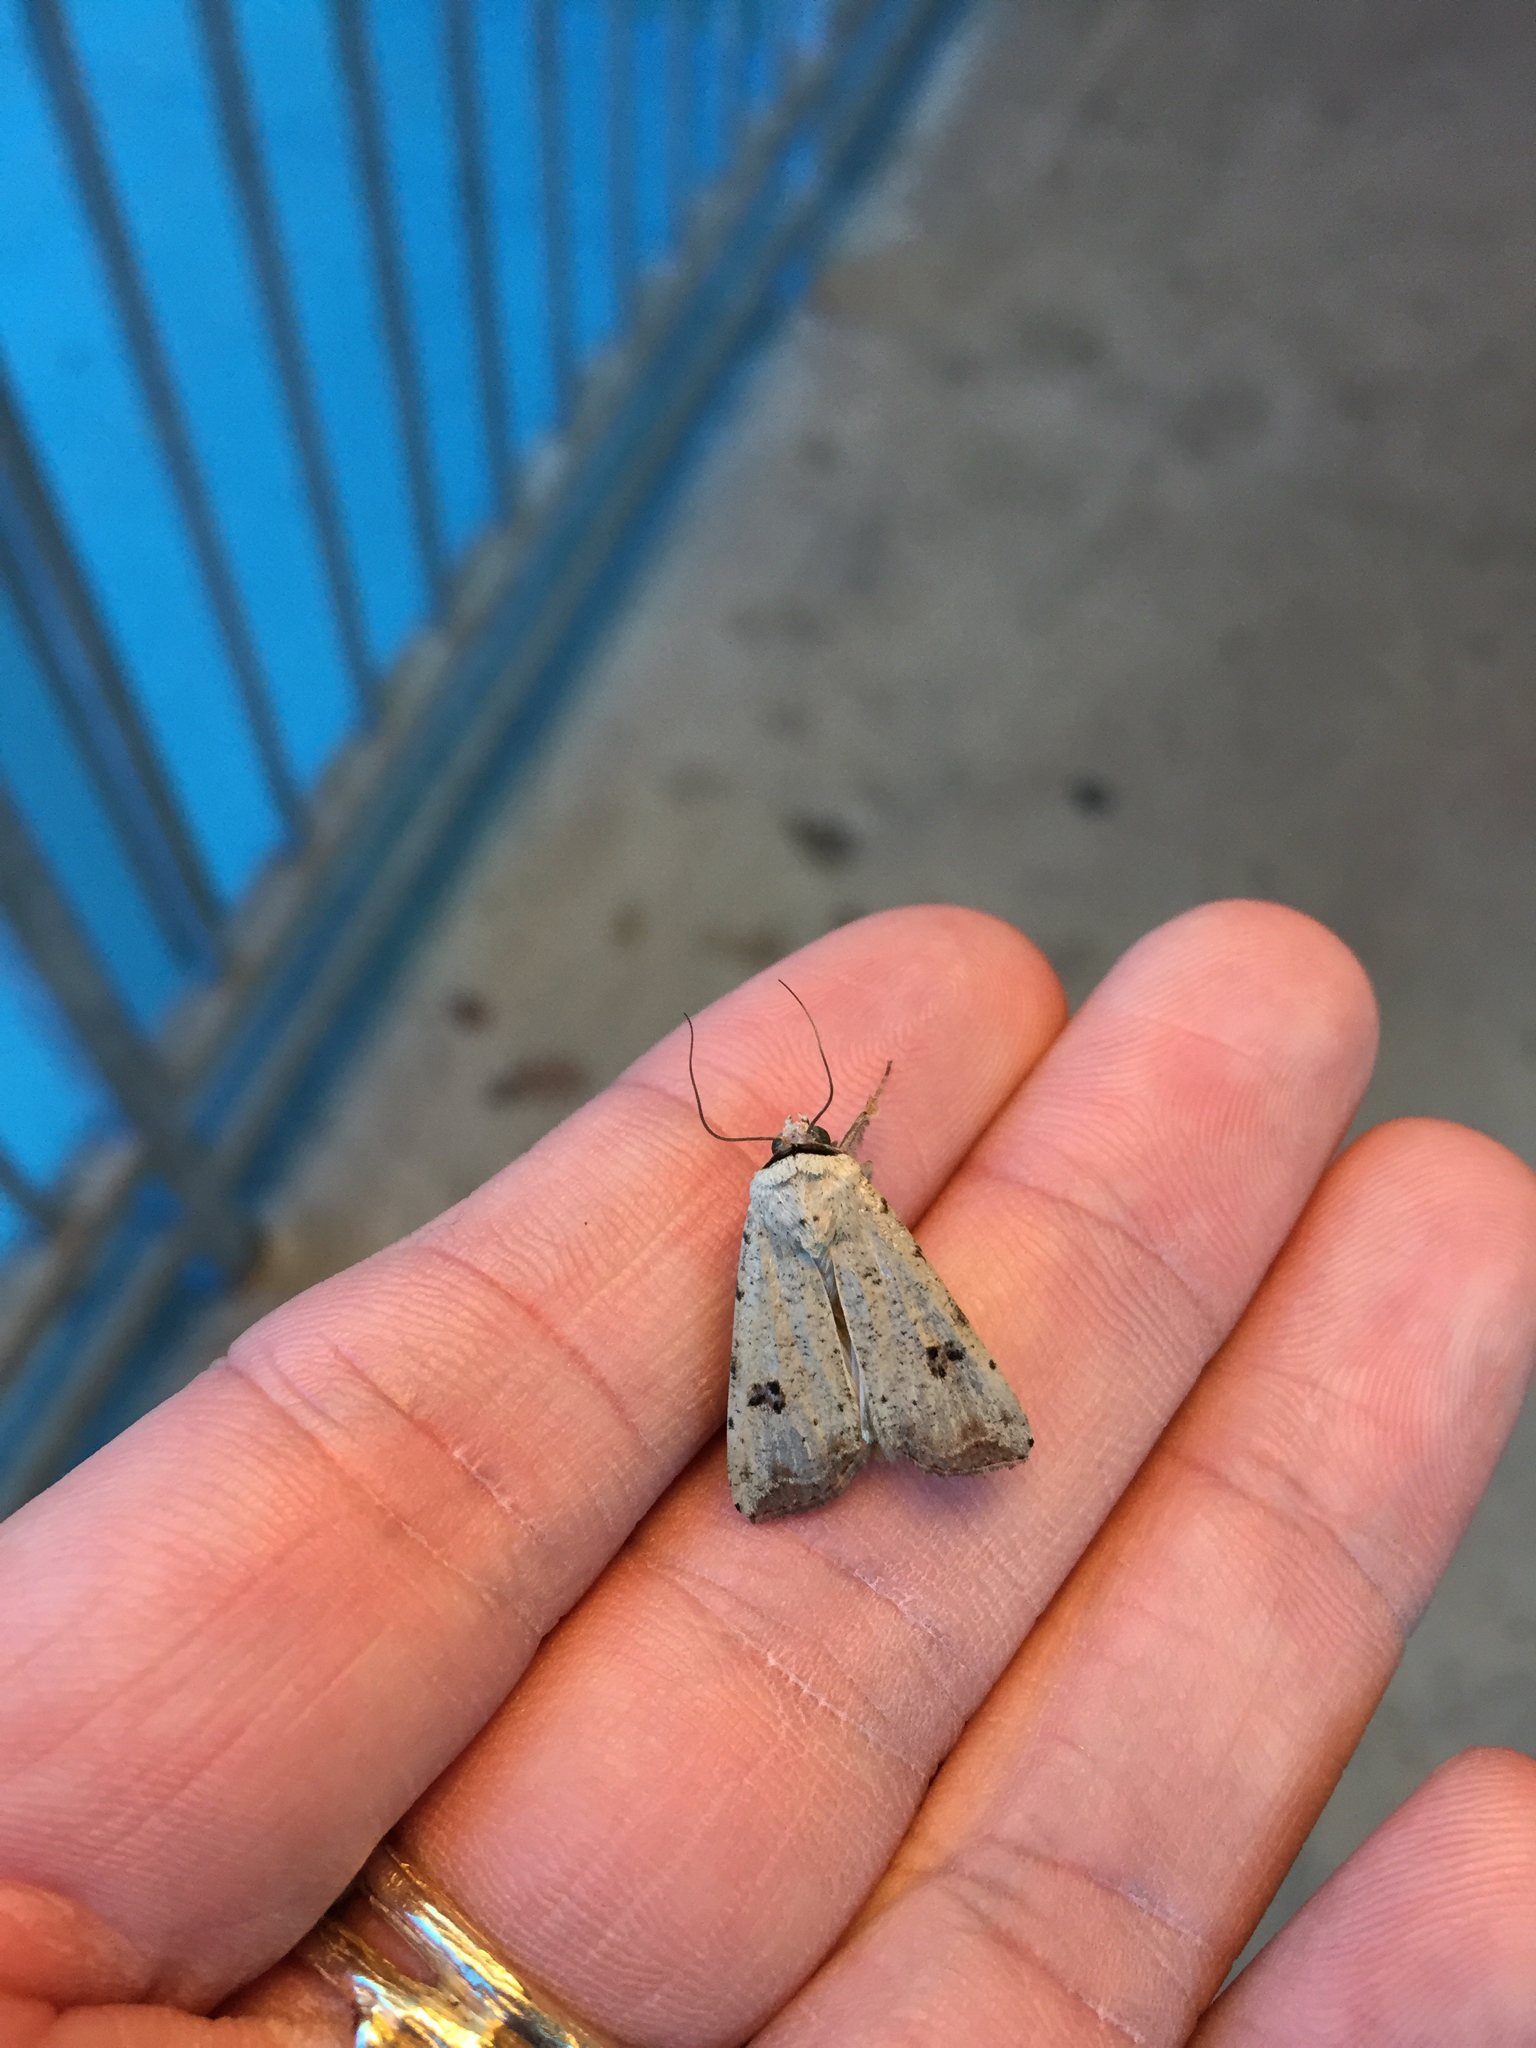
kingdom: Animalia
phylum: Arthropoda
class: Insecta
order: Lepidoptera
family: Noctuidae
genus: Anicla
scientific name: Anicla infecta
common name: Green cutworm
